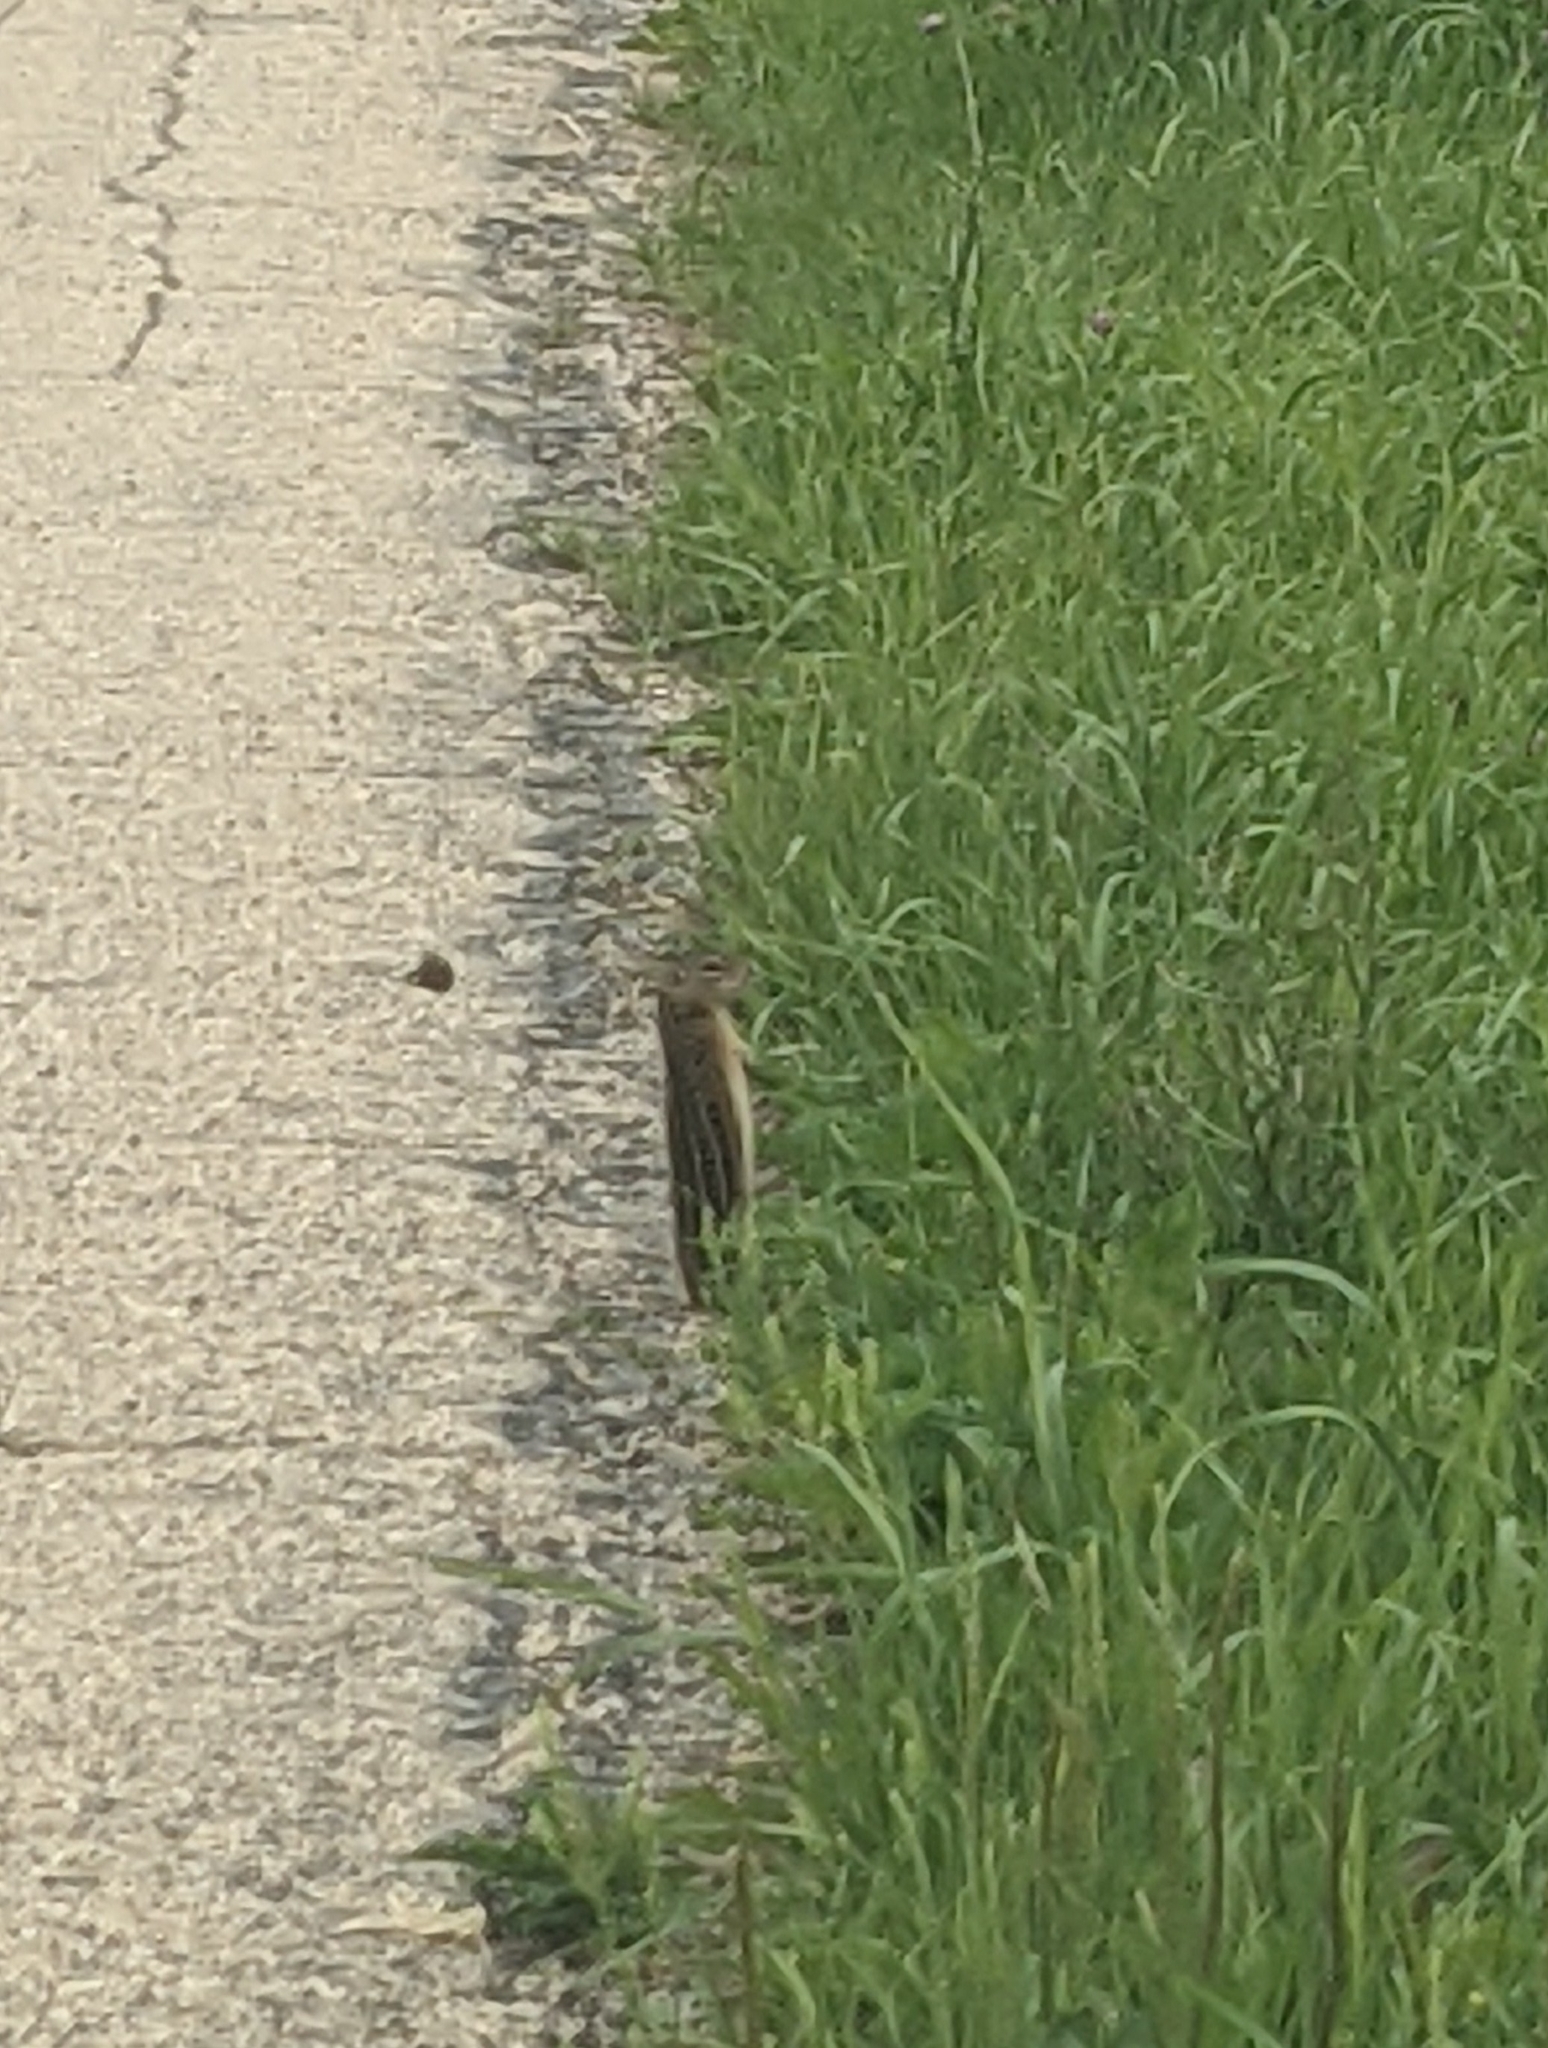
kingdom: Animalia
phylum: Chordata
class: Mammalia
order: Rodentia
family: Sciuridae
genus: Ictidomys
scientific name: Ictidomys tridecemlineatus
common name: Thirteen-lined ground squirrel
